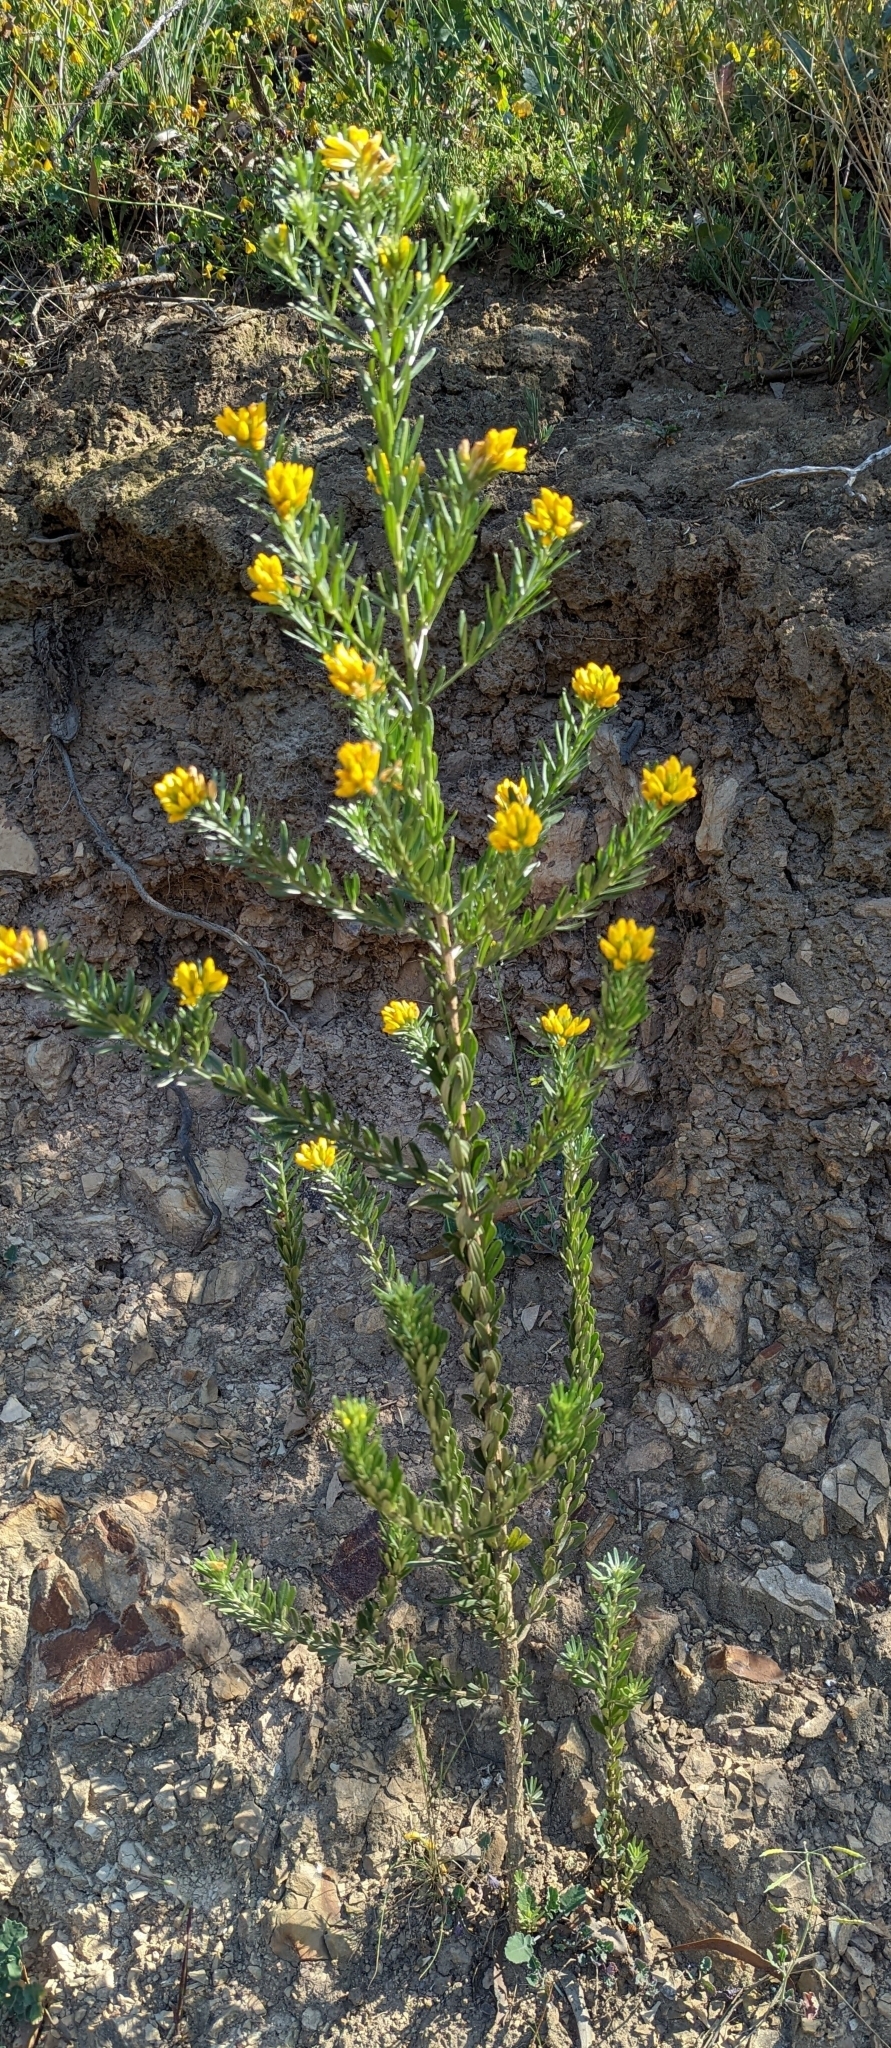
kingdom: Plantae
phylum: Tracheophyta
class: Magnoliopsida
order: Fabales
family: Fabaceae
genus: Genista
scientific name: Genista linifolia
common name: Mediterranean broom
